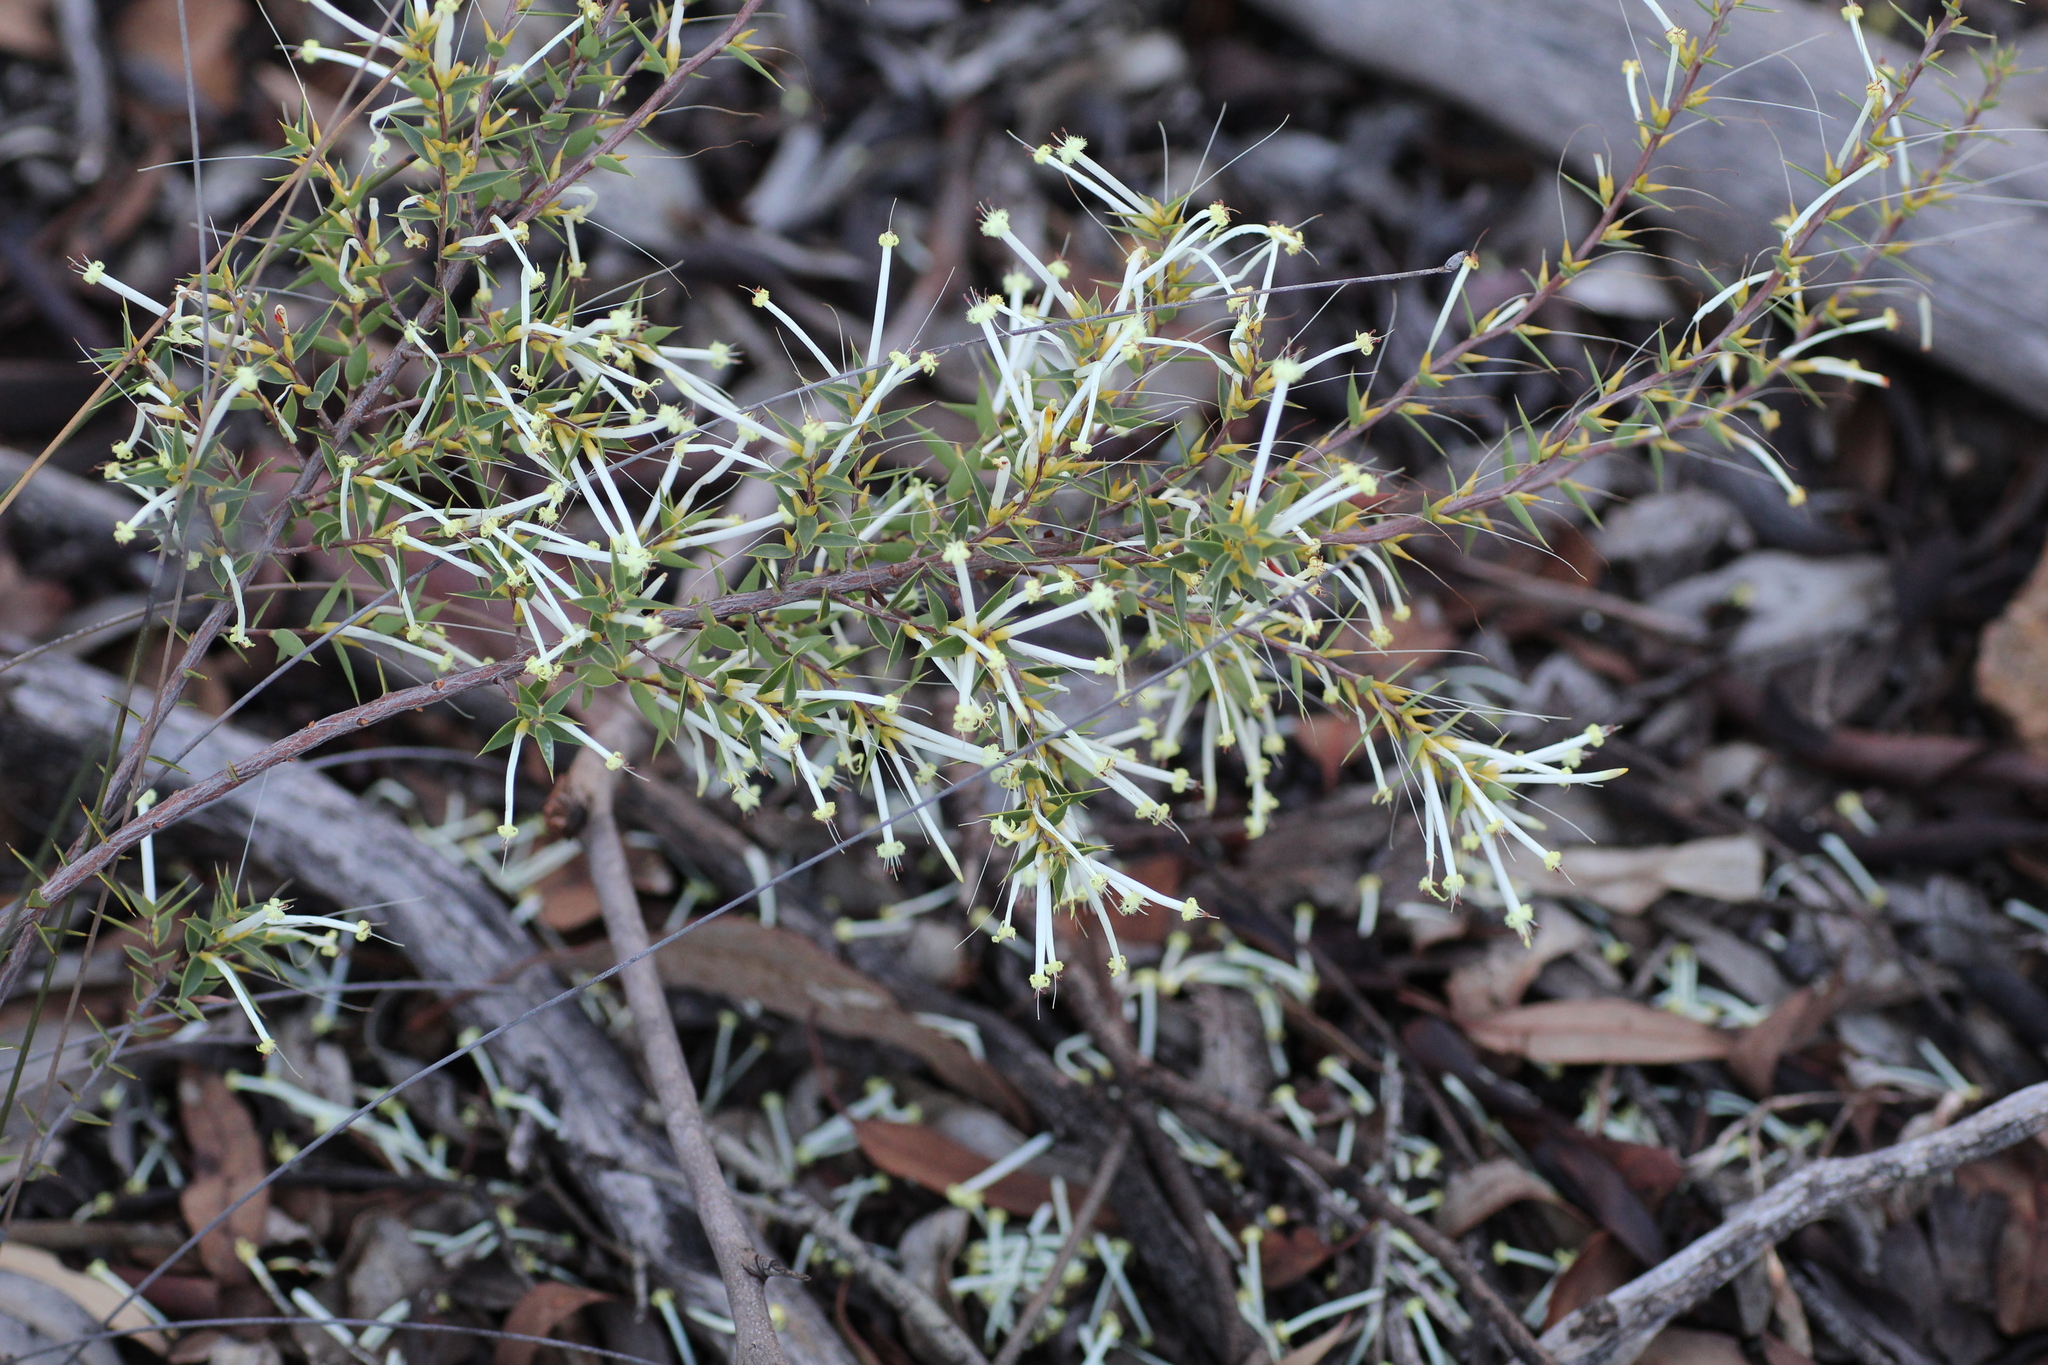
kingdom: Plantae
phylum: Tracheophyta
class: Magnoliopsida
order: Ericales
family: Ericaceae
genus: Styphelia
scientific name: Styphelia tenuiflora
